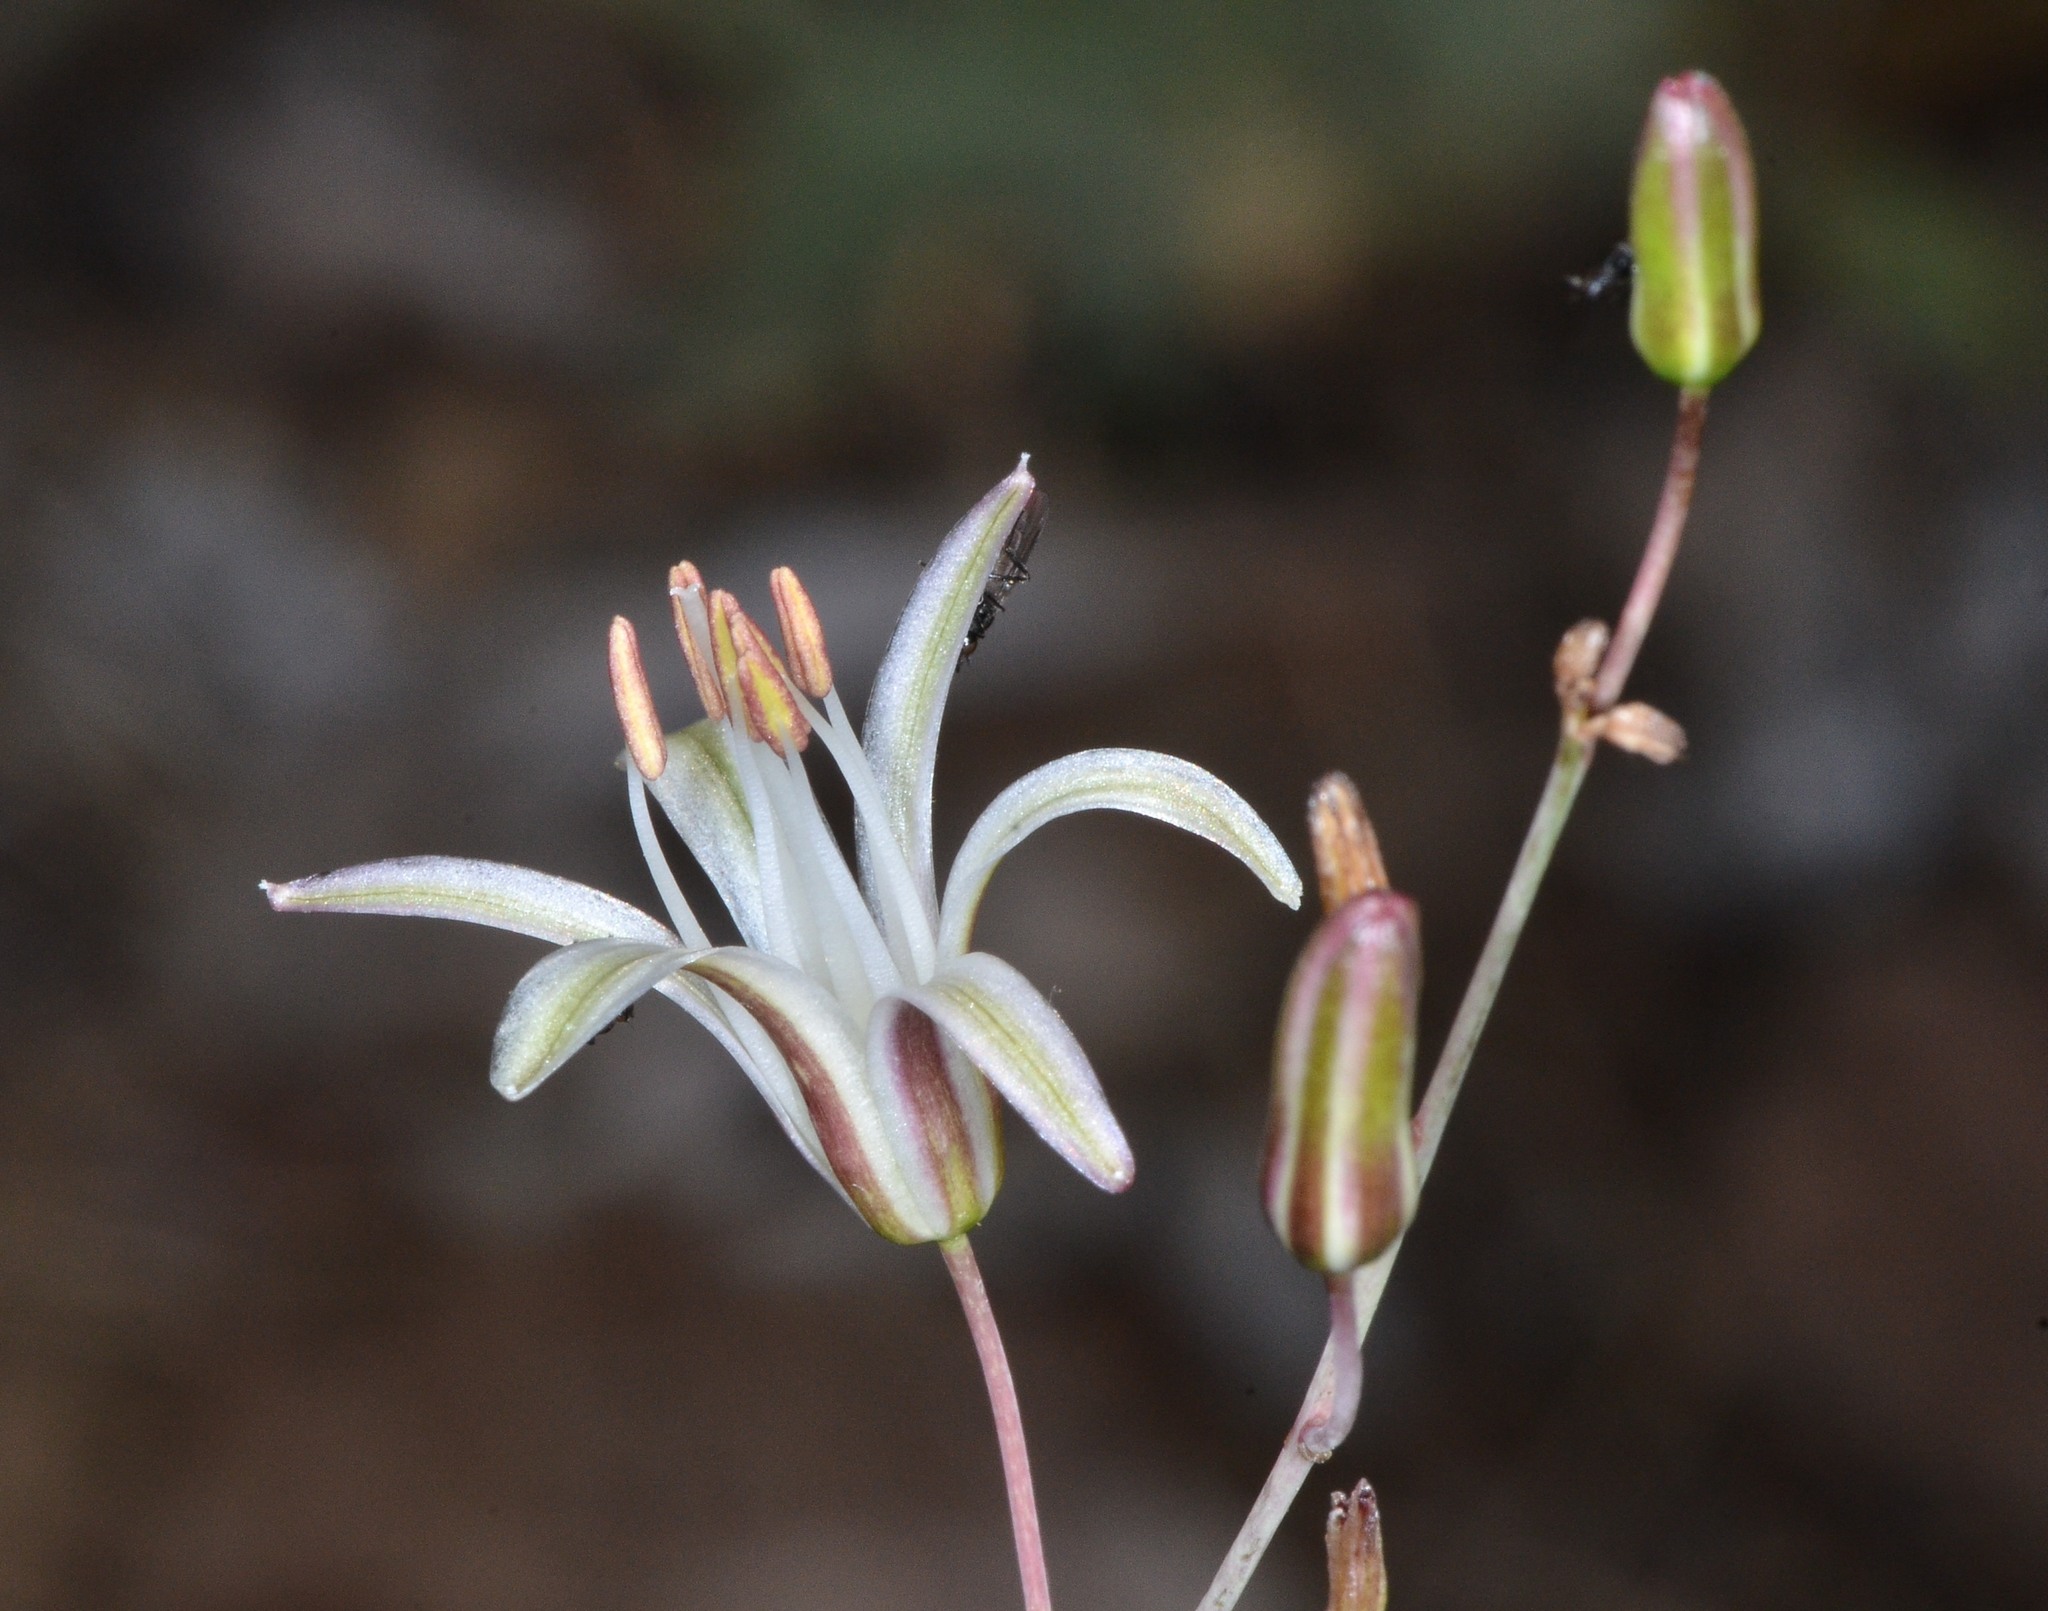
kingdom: Plantae
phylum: Tracheophyta
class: Liliopsida
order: Asparagales
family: Asparagaceae
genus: Chlorogalum
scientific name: Chlorogalum angustifolium
